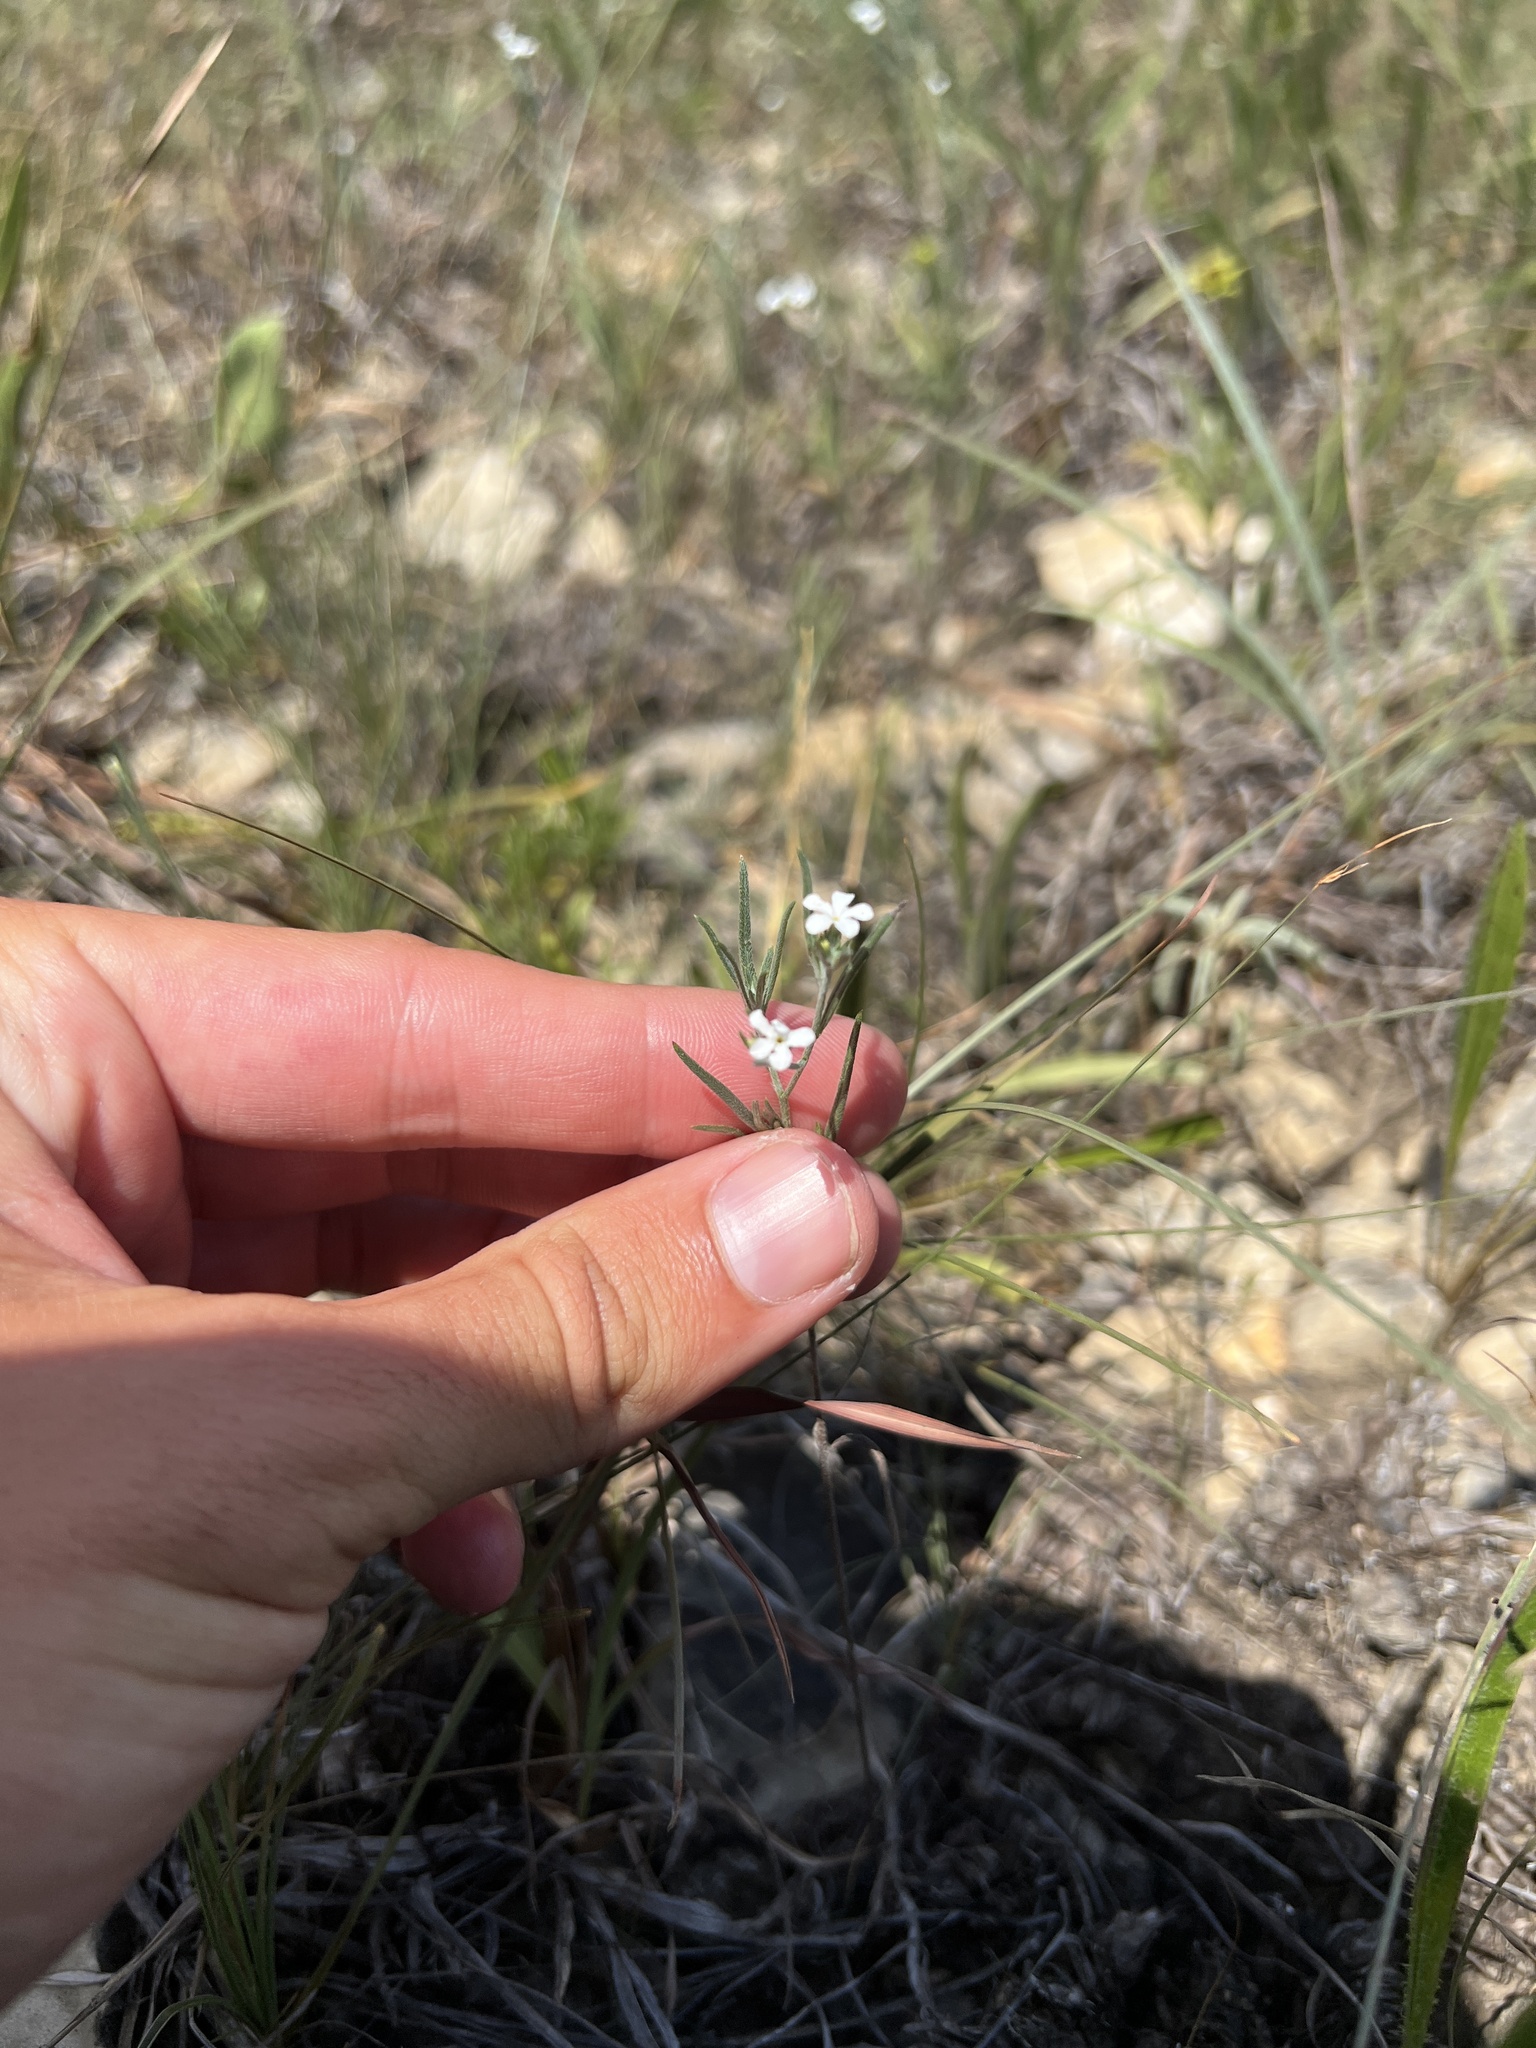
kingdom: Plantae
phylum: Tracheophyta
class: Magnoliopsida
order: Boraginales
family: Heliotropiaceae
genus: Euploca
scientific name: Euploca tenella
